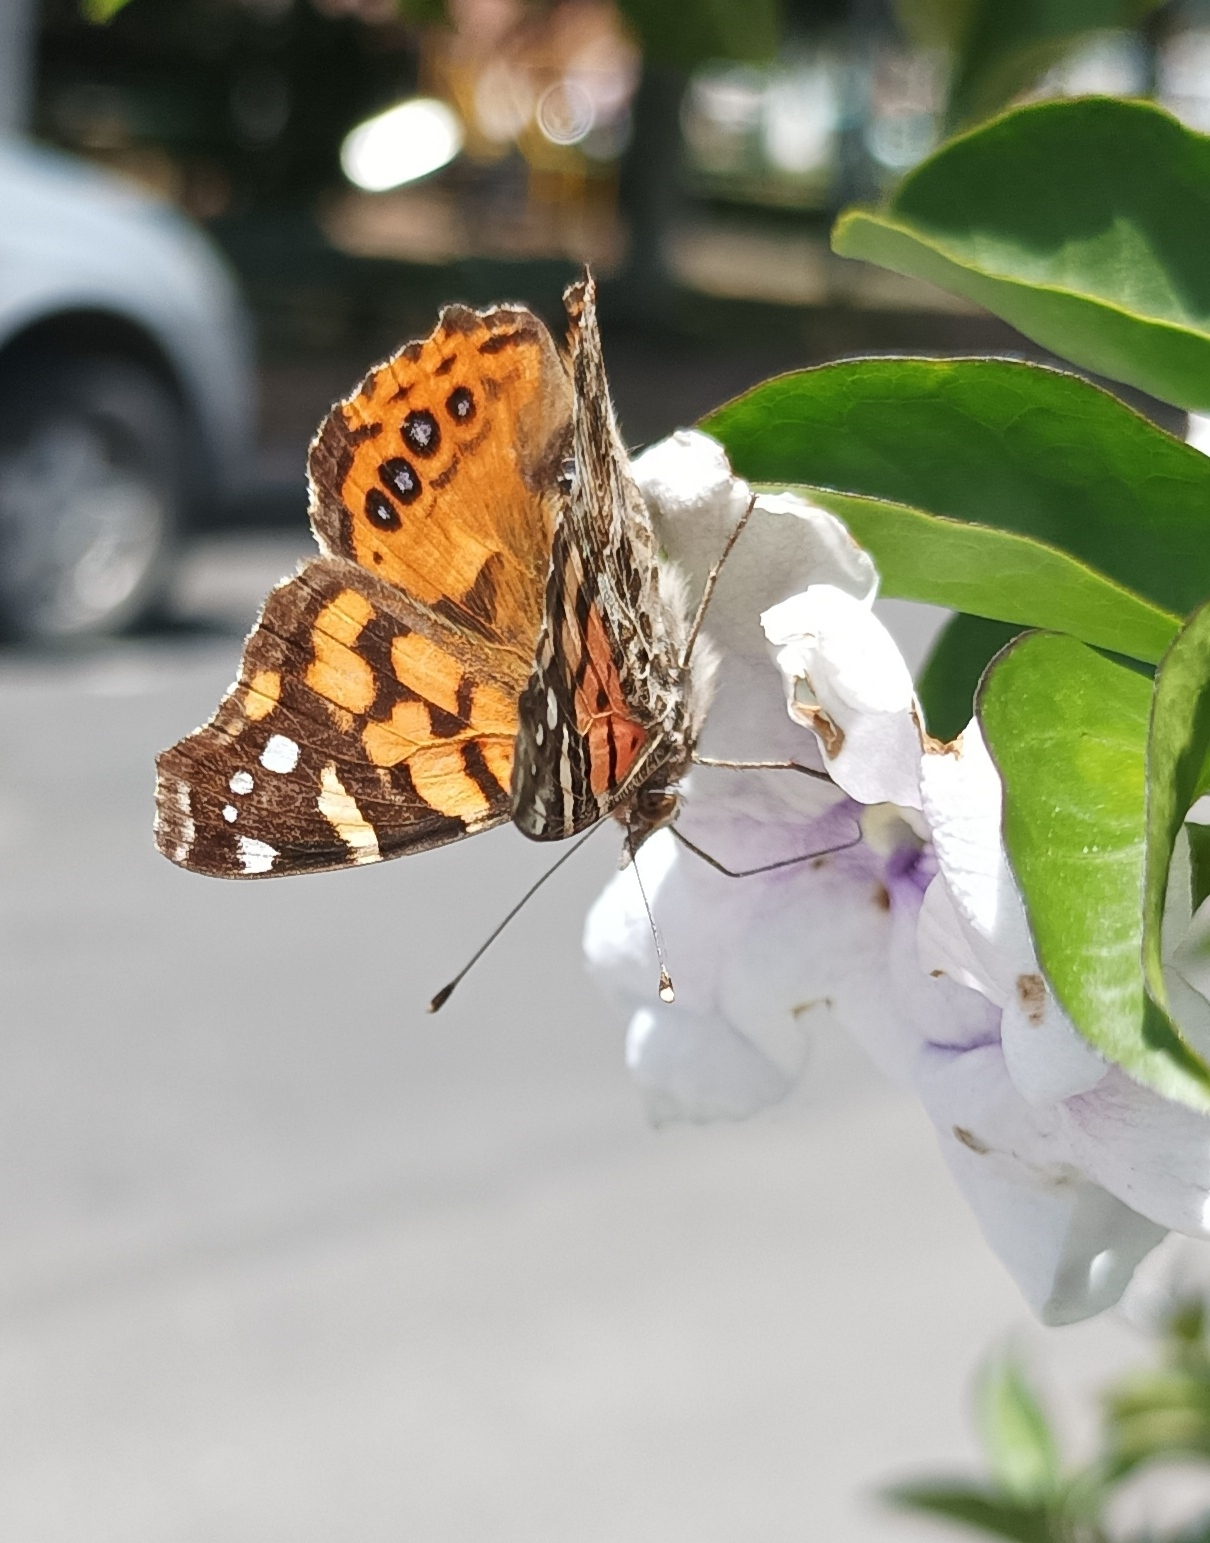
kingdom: Animalia
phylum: Arthropoda
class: Insecta
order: Lepidoptera
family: Nymphalidae
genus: Vanessa
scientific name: Vanessa carye
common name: Subtropical lady
